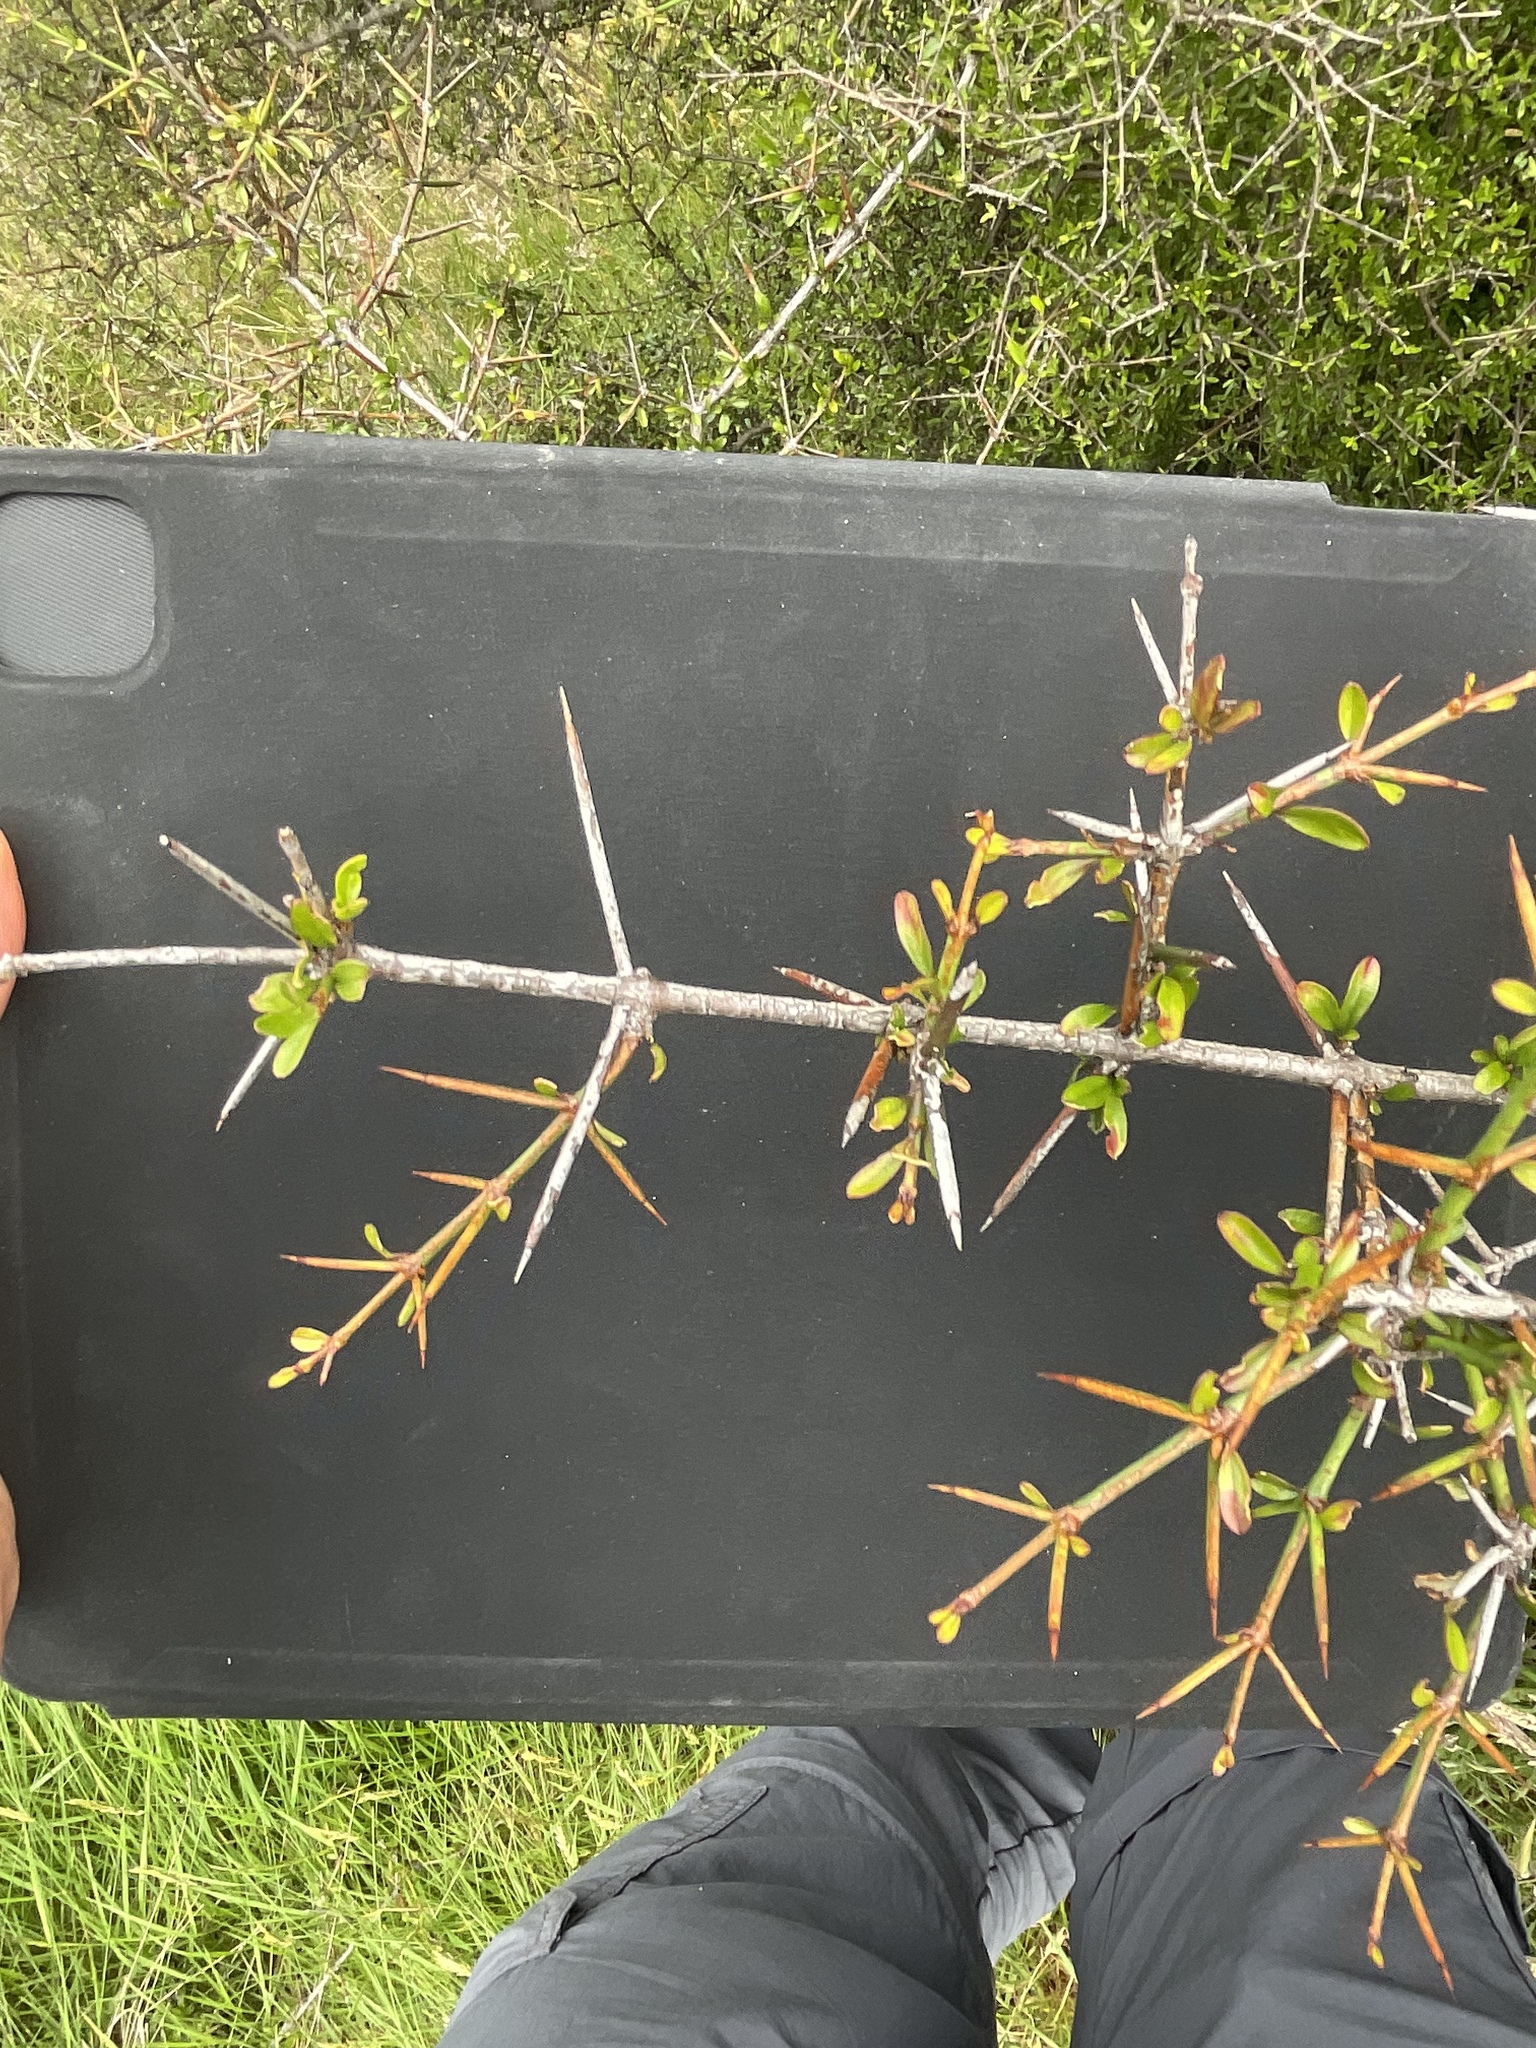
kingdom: Plantae
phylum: Tracheophyta
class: Magnoliopsida
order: Rosales
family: Rhamnaceae
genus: Discaria
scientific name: Discaria toumatou
